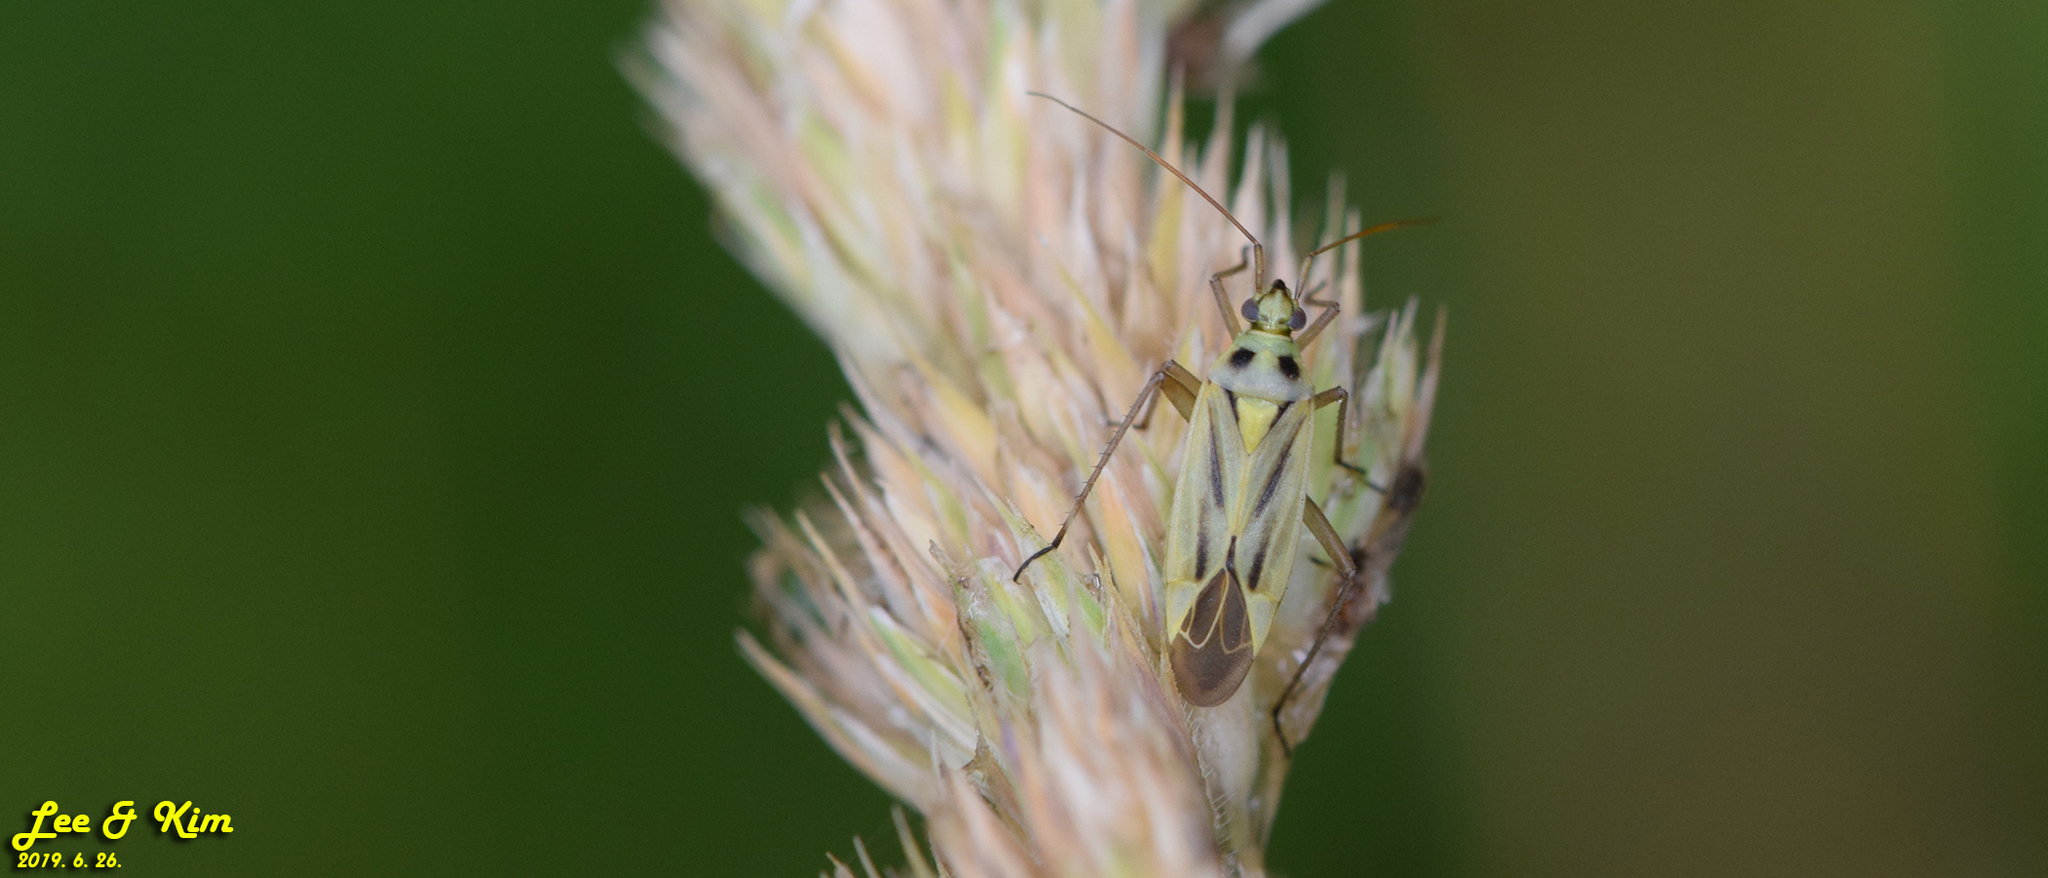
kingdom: Animalia
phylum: Arthropoda
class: Insecta
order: Hemiptera
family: Miridae
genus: Stenotus
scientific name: Stenotus binotatus
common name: Plant bug
